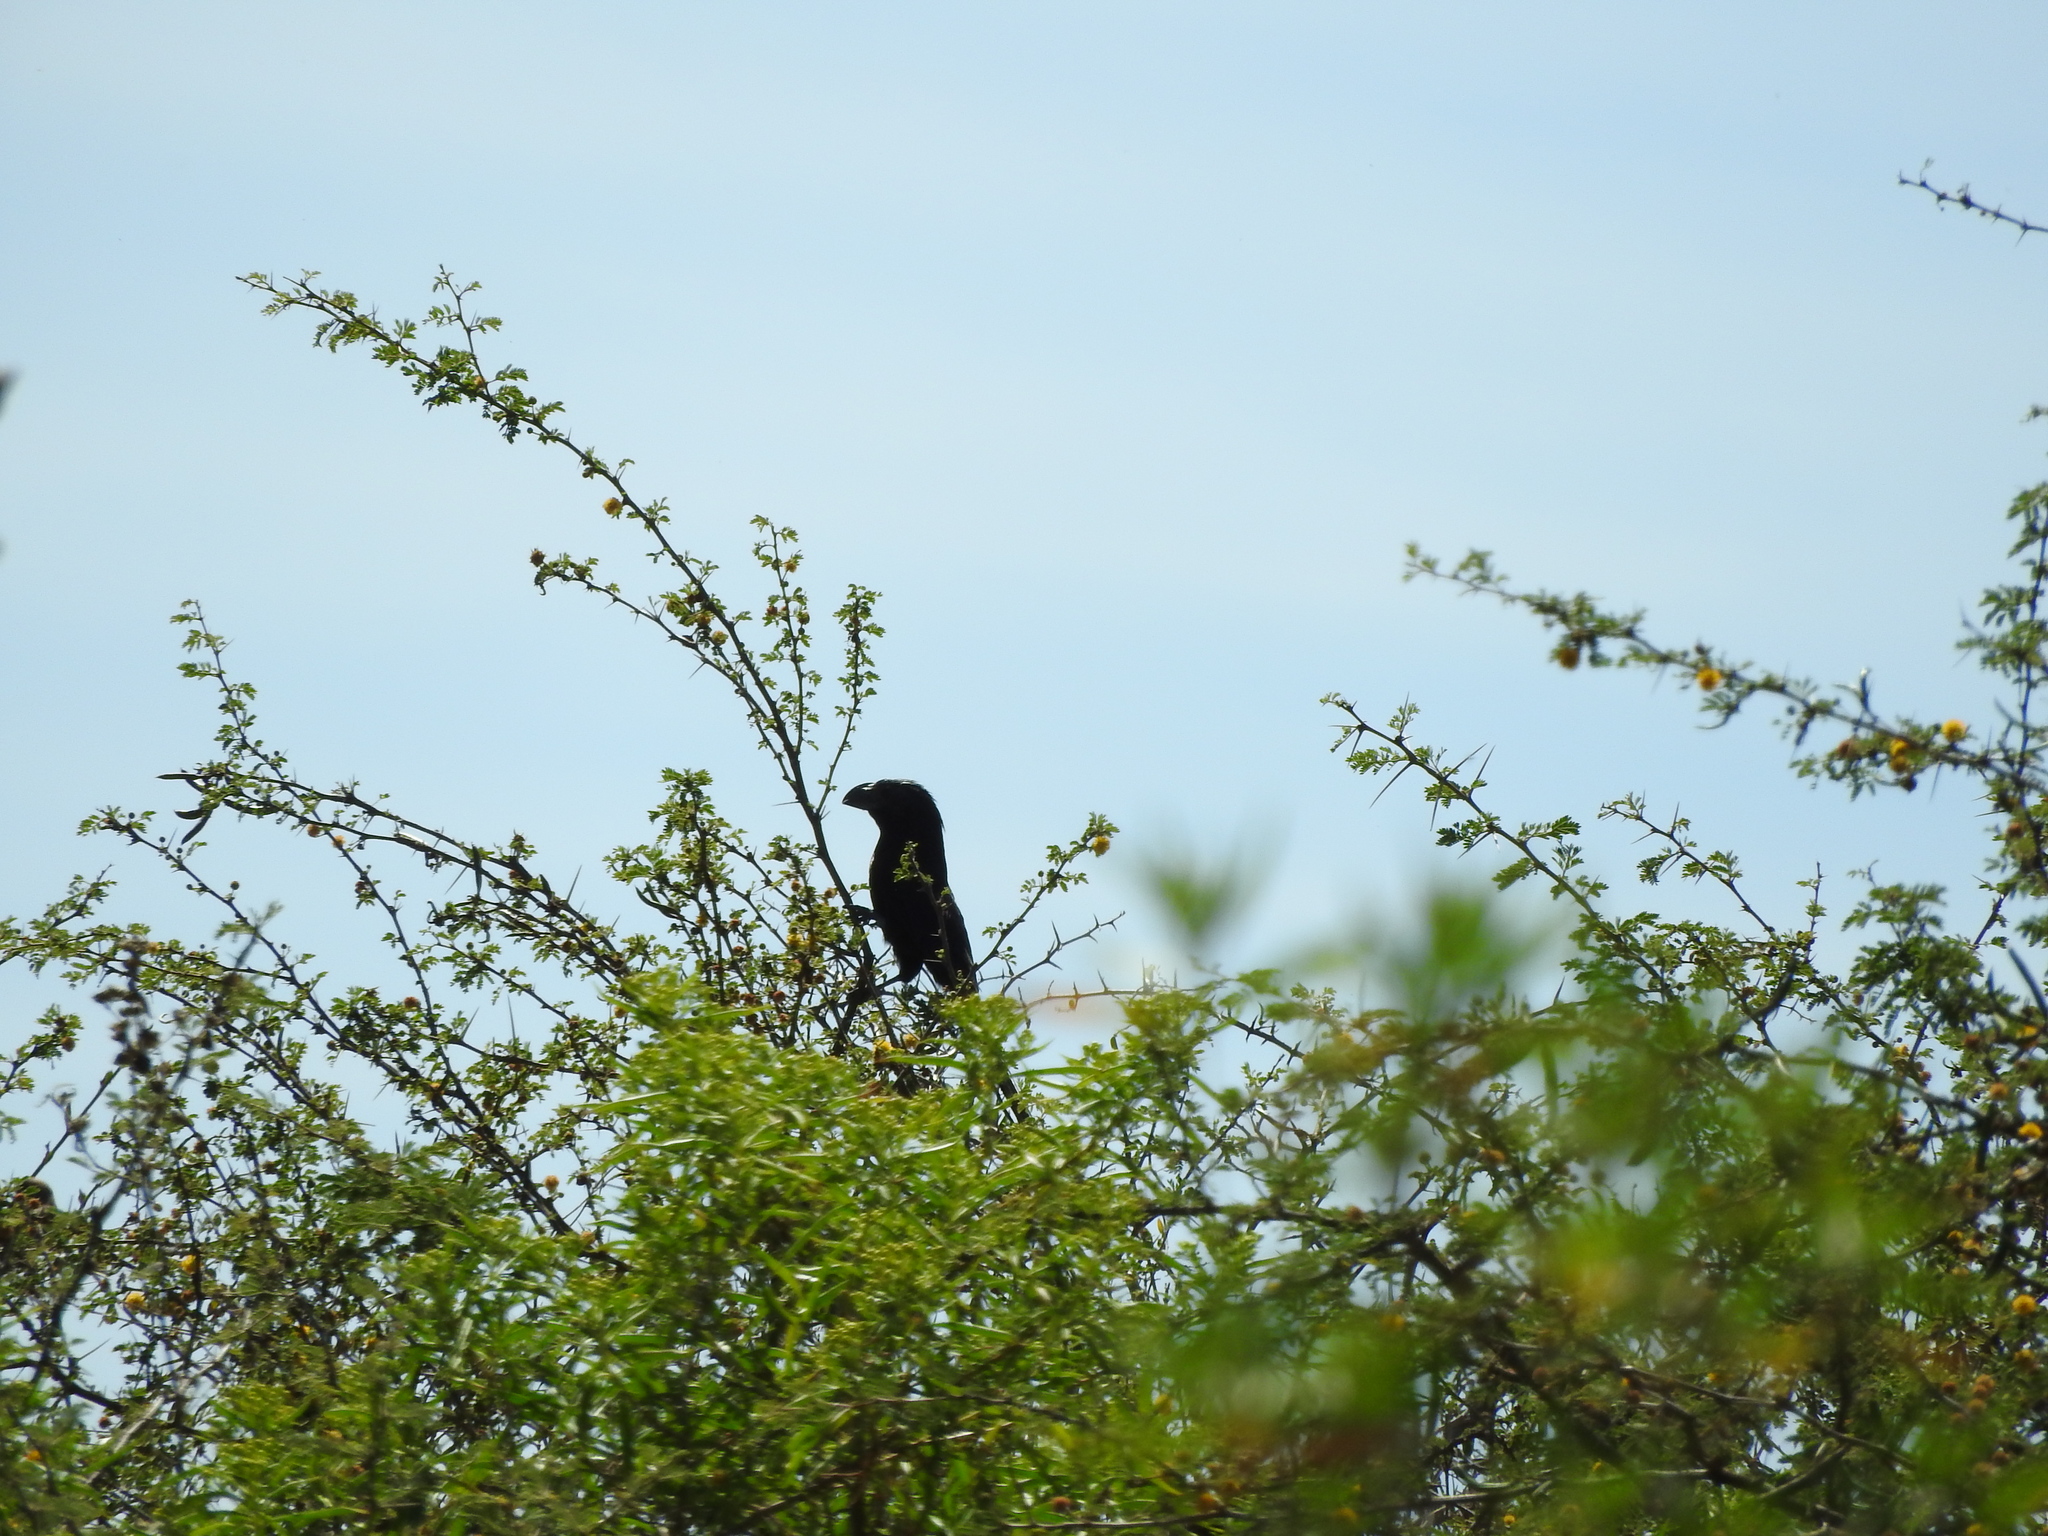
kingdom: Animalia
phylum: Chordata
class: Aves
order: Cuculiformes
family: Cuculidae
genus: Crotophaga
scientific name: Crotophaga sulcirostris
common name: Groove-billed ani
